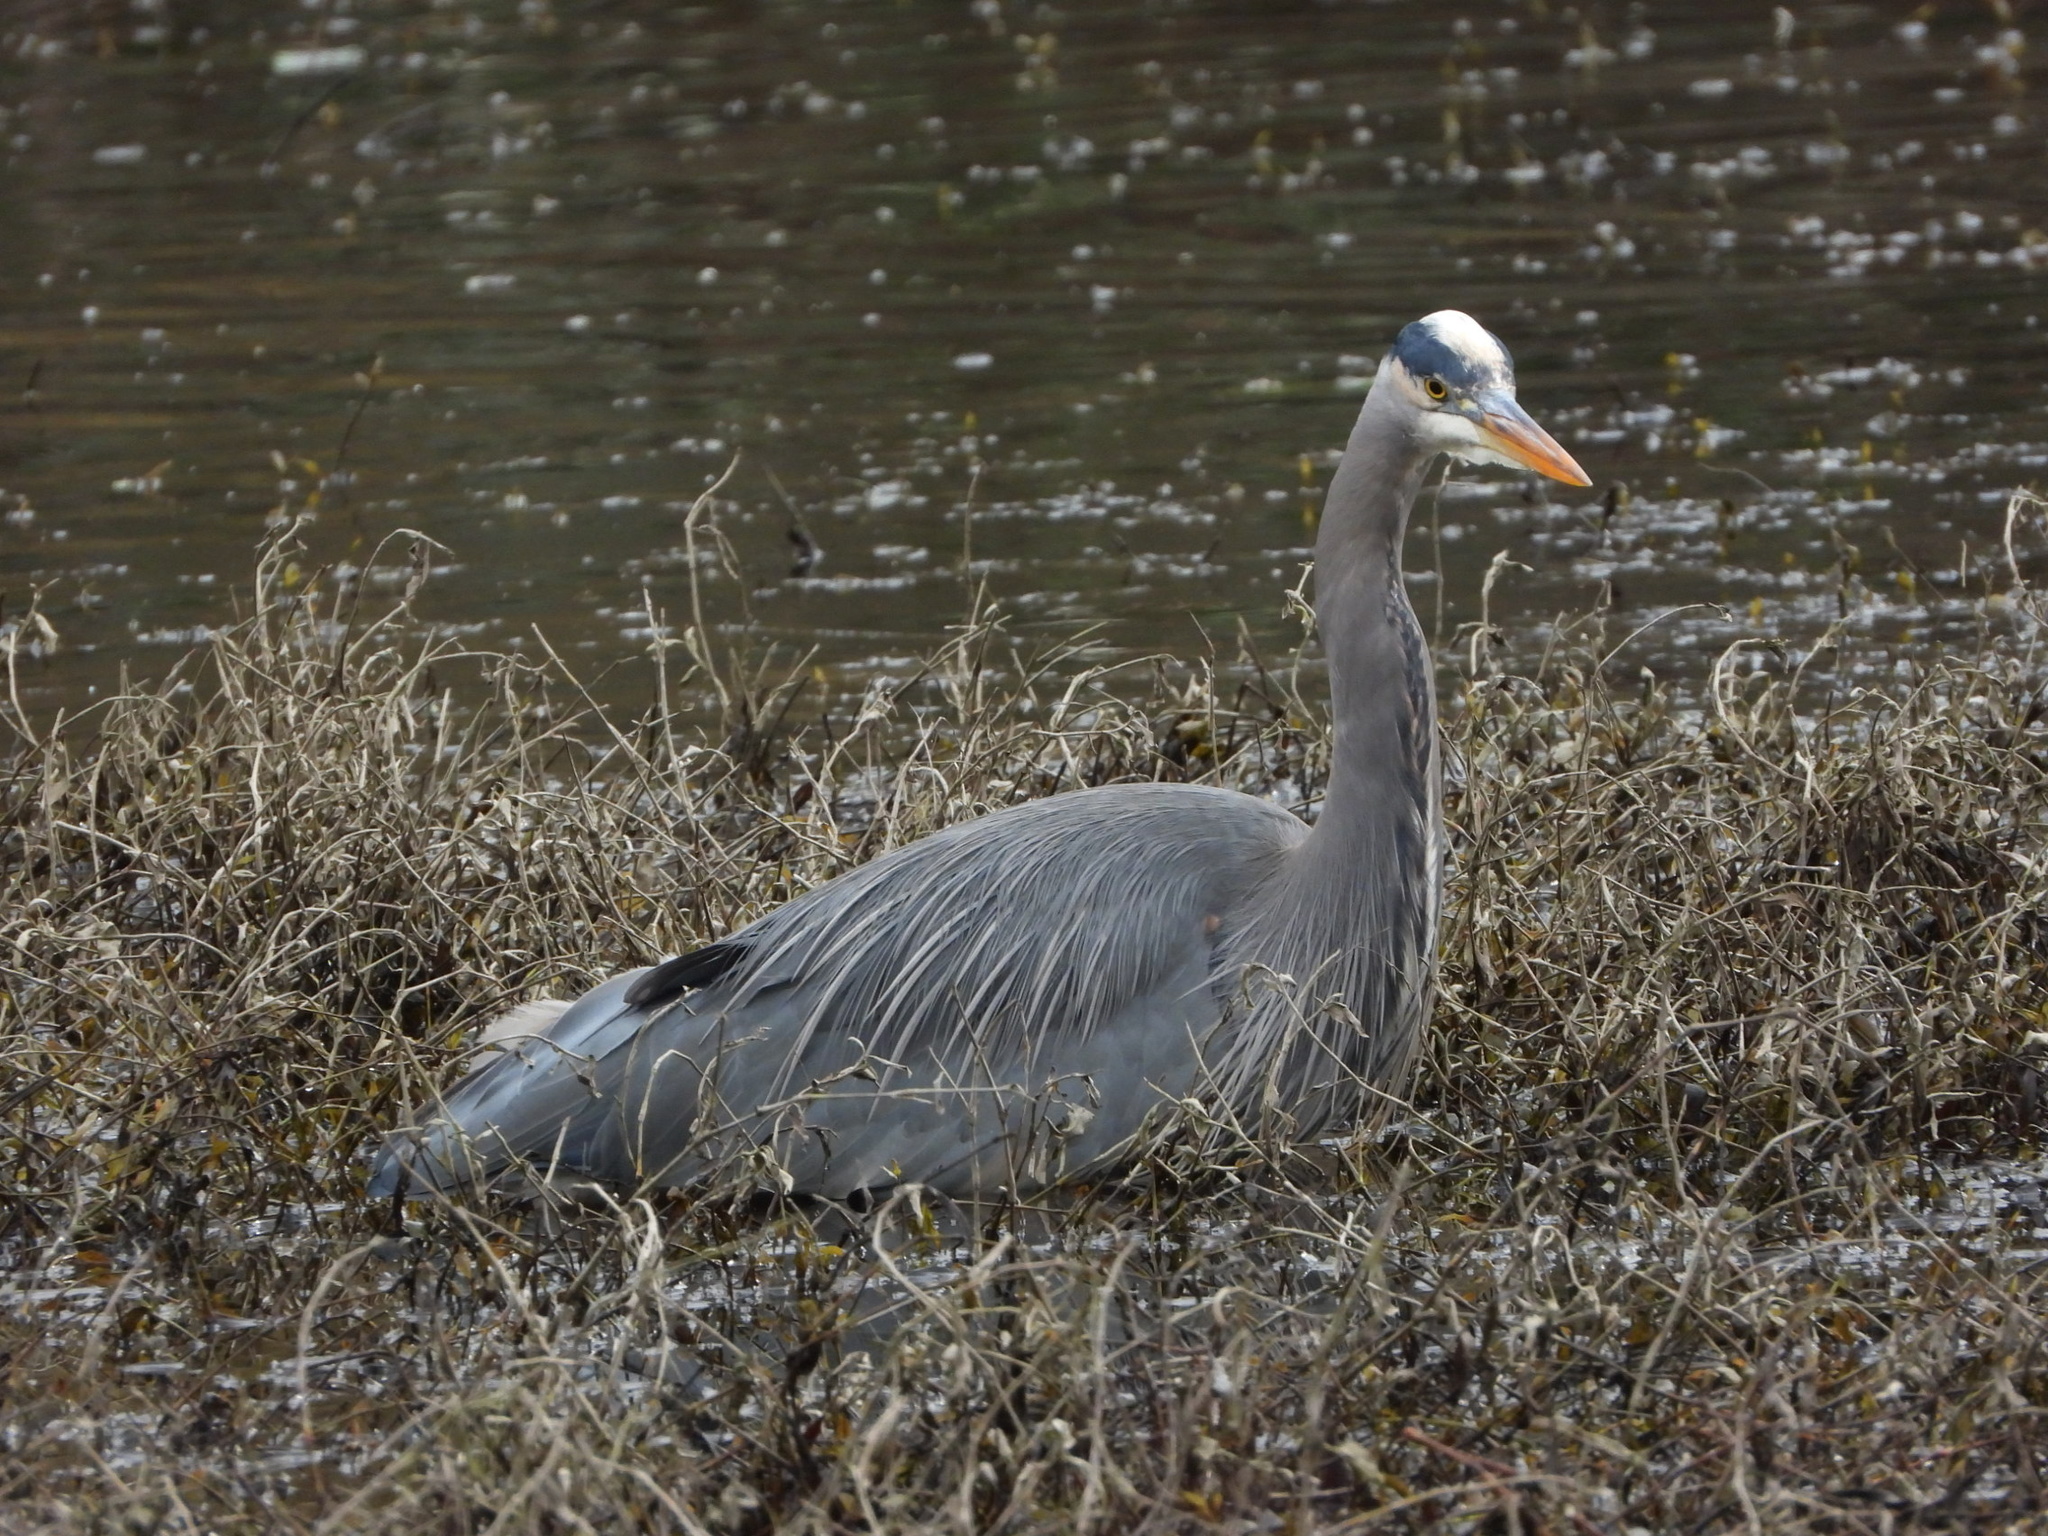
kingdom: Animalia
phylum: Chordata
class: Aves
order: Pelecaniformes
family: Ardeidae
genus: Ardea
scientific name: Ardea herodias
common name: Great blue heron
